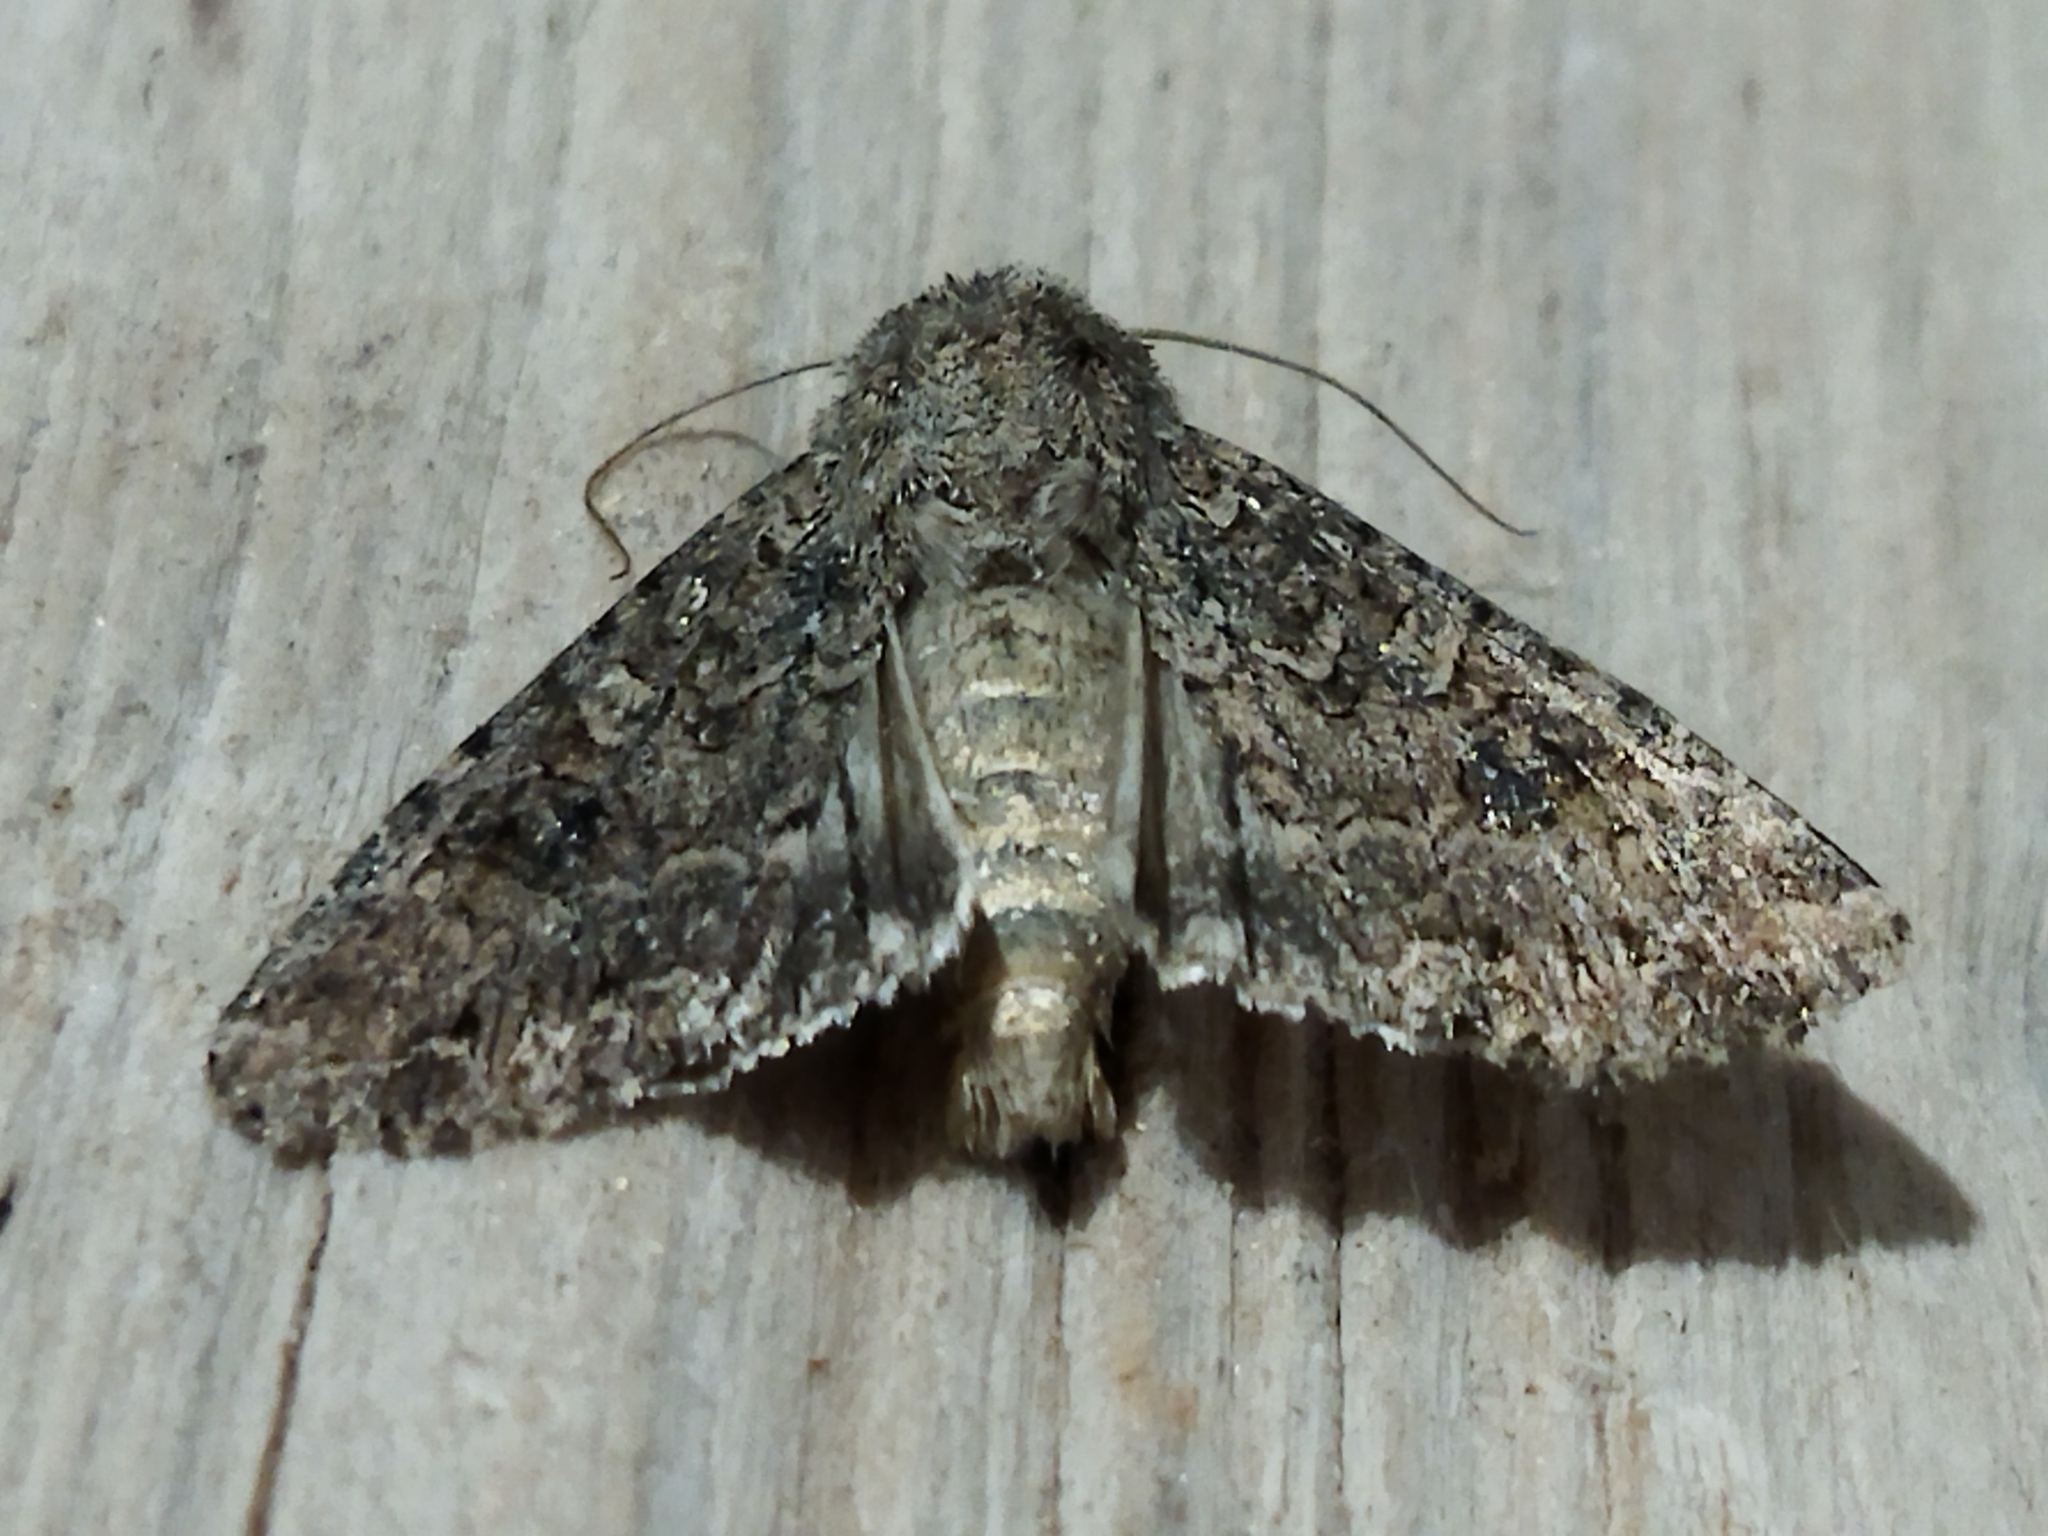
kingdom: Animalia
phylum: Arthropoda
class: Insecta
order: Lepidoptera
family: Noctuidae
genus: Anarta
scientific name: Anarta trifolii
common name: Clover cutworm moth
